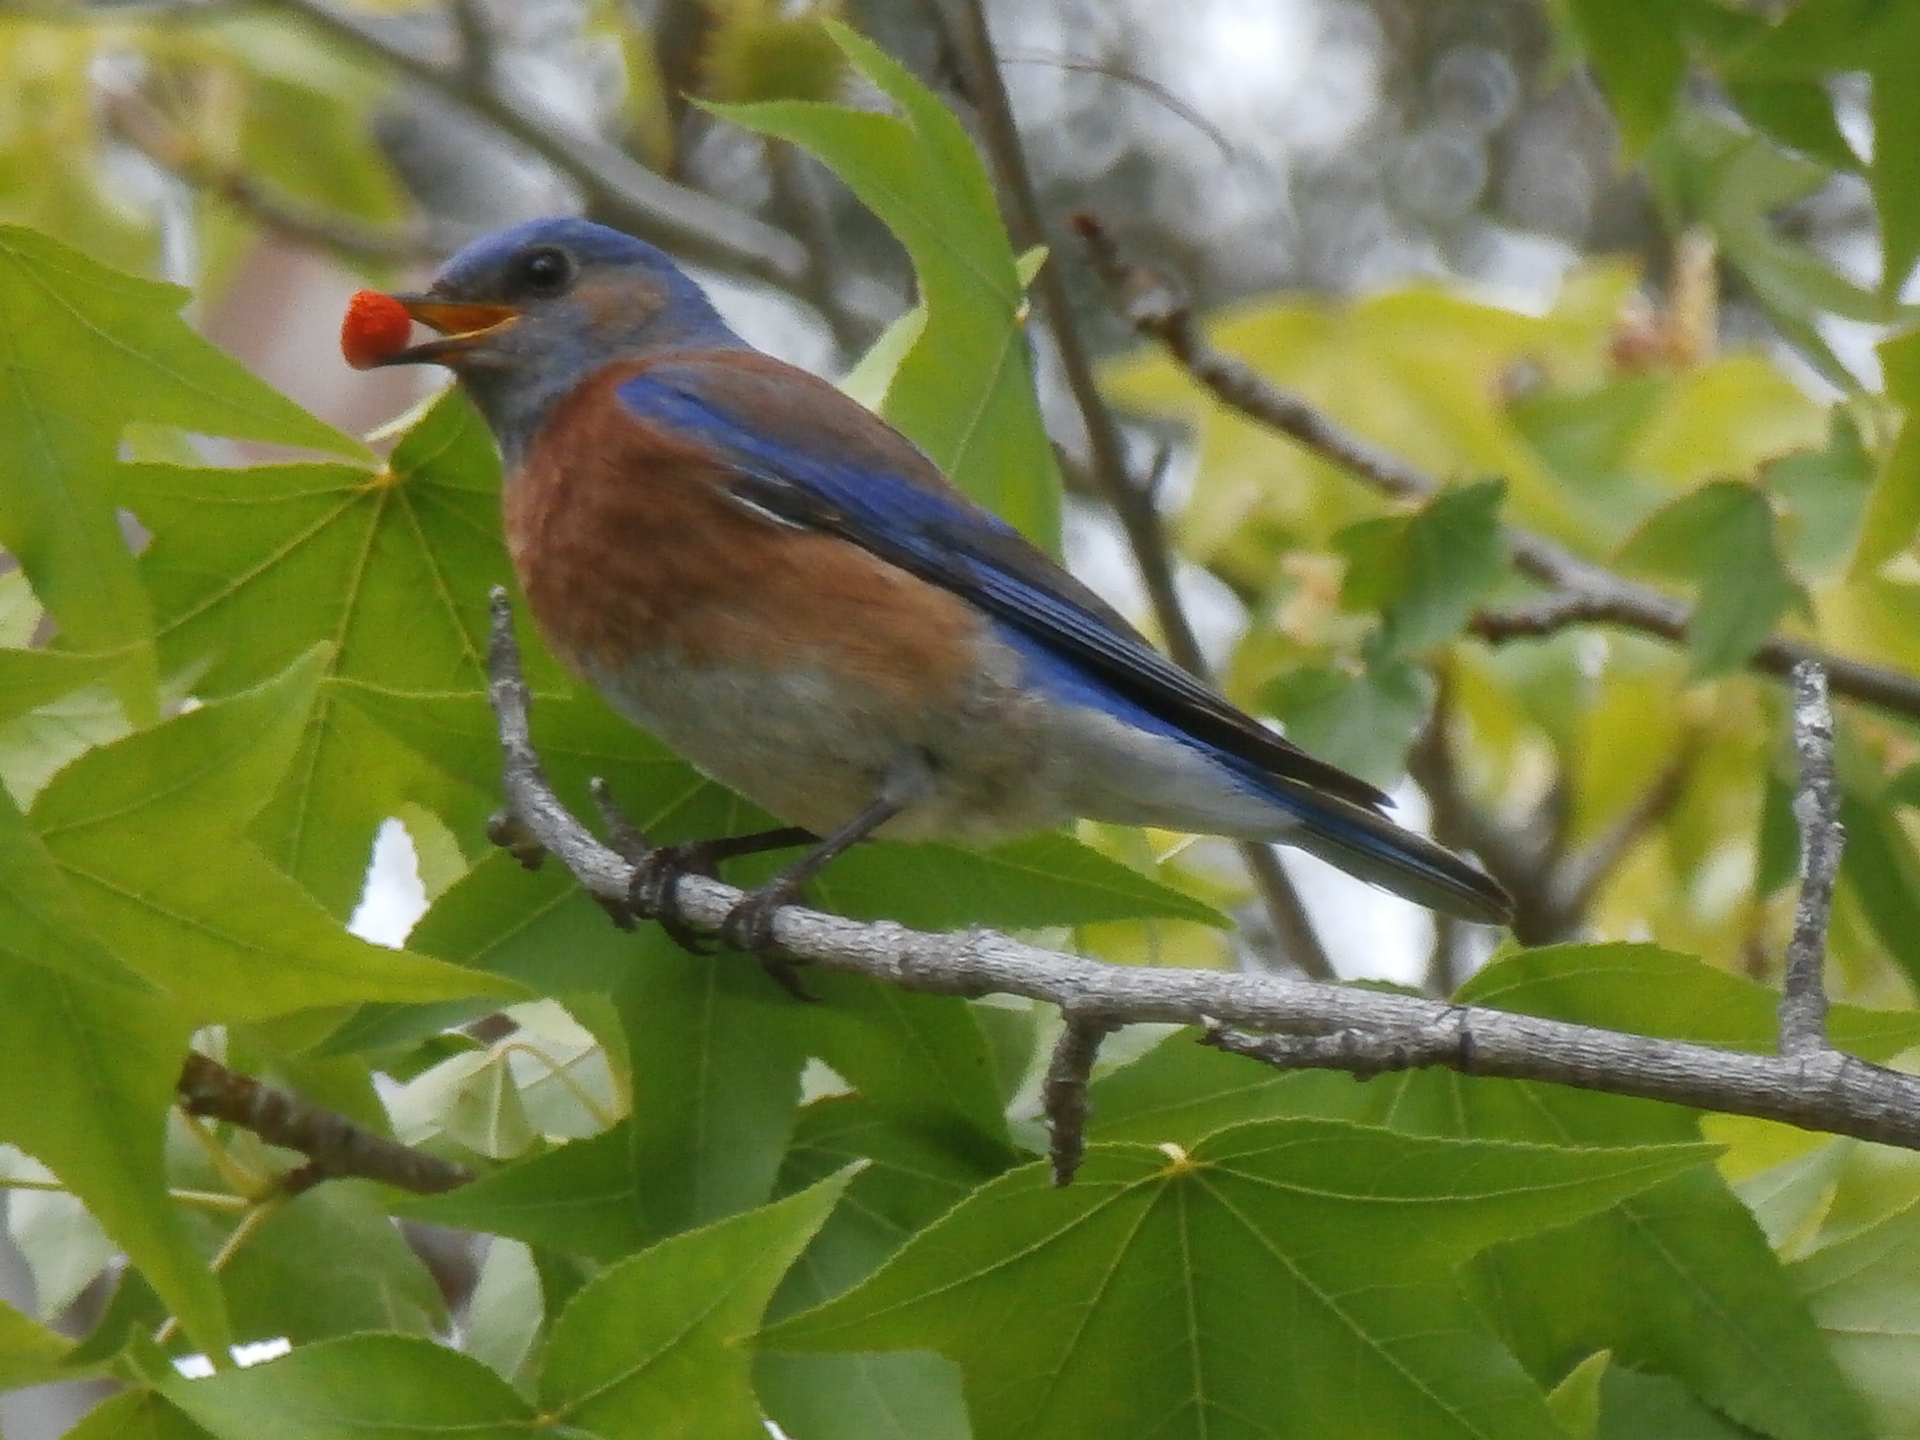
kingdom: Animalia
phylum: Chordata
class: Aves
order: Passeriformes
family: Turdidae
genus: Sialia
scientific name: Sialia mexicana
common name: Western bluebird
